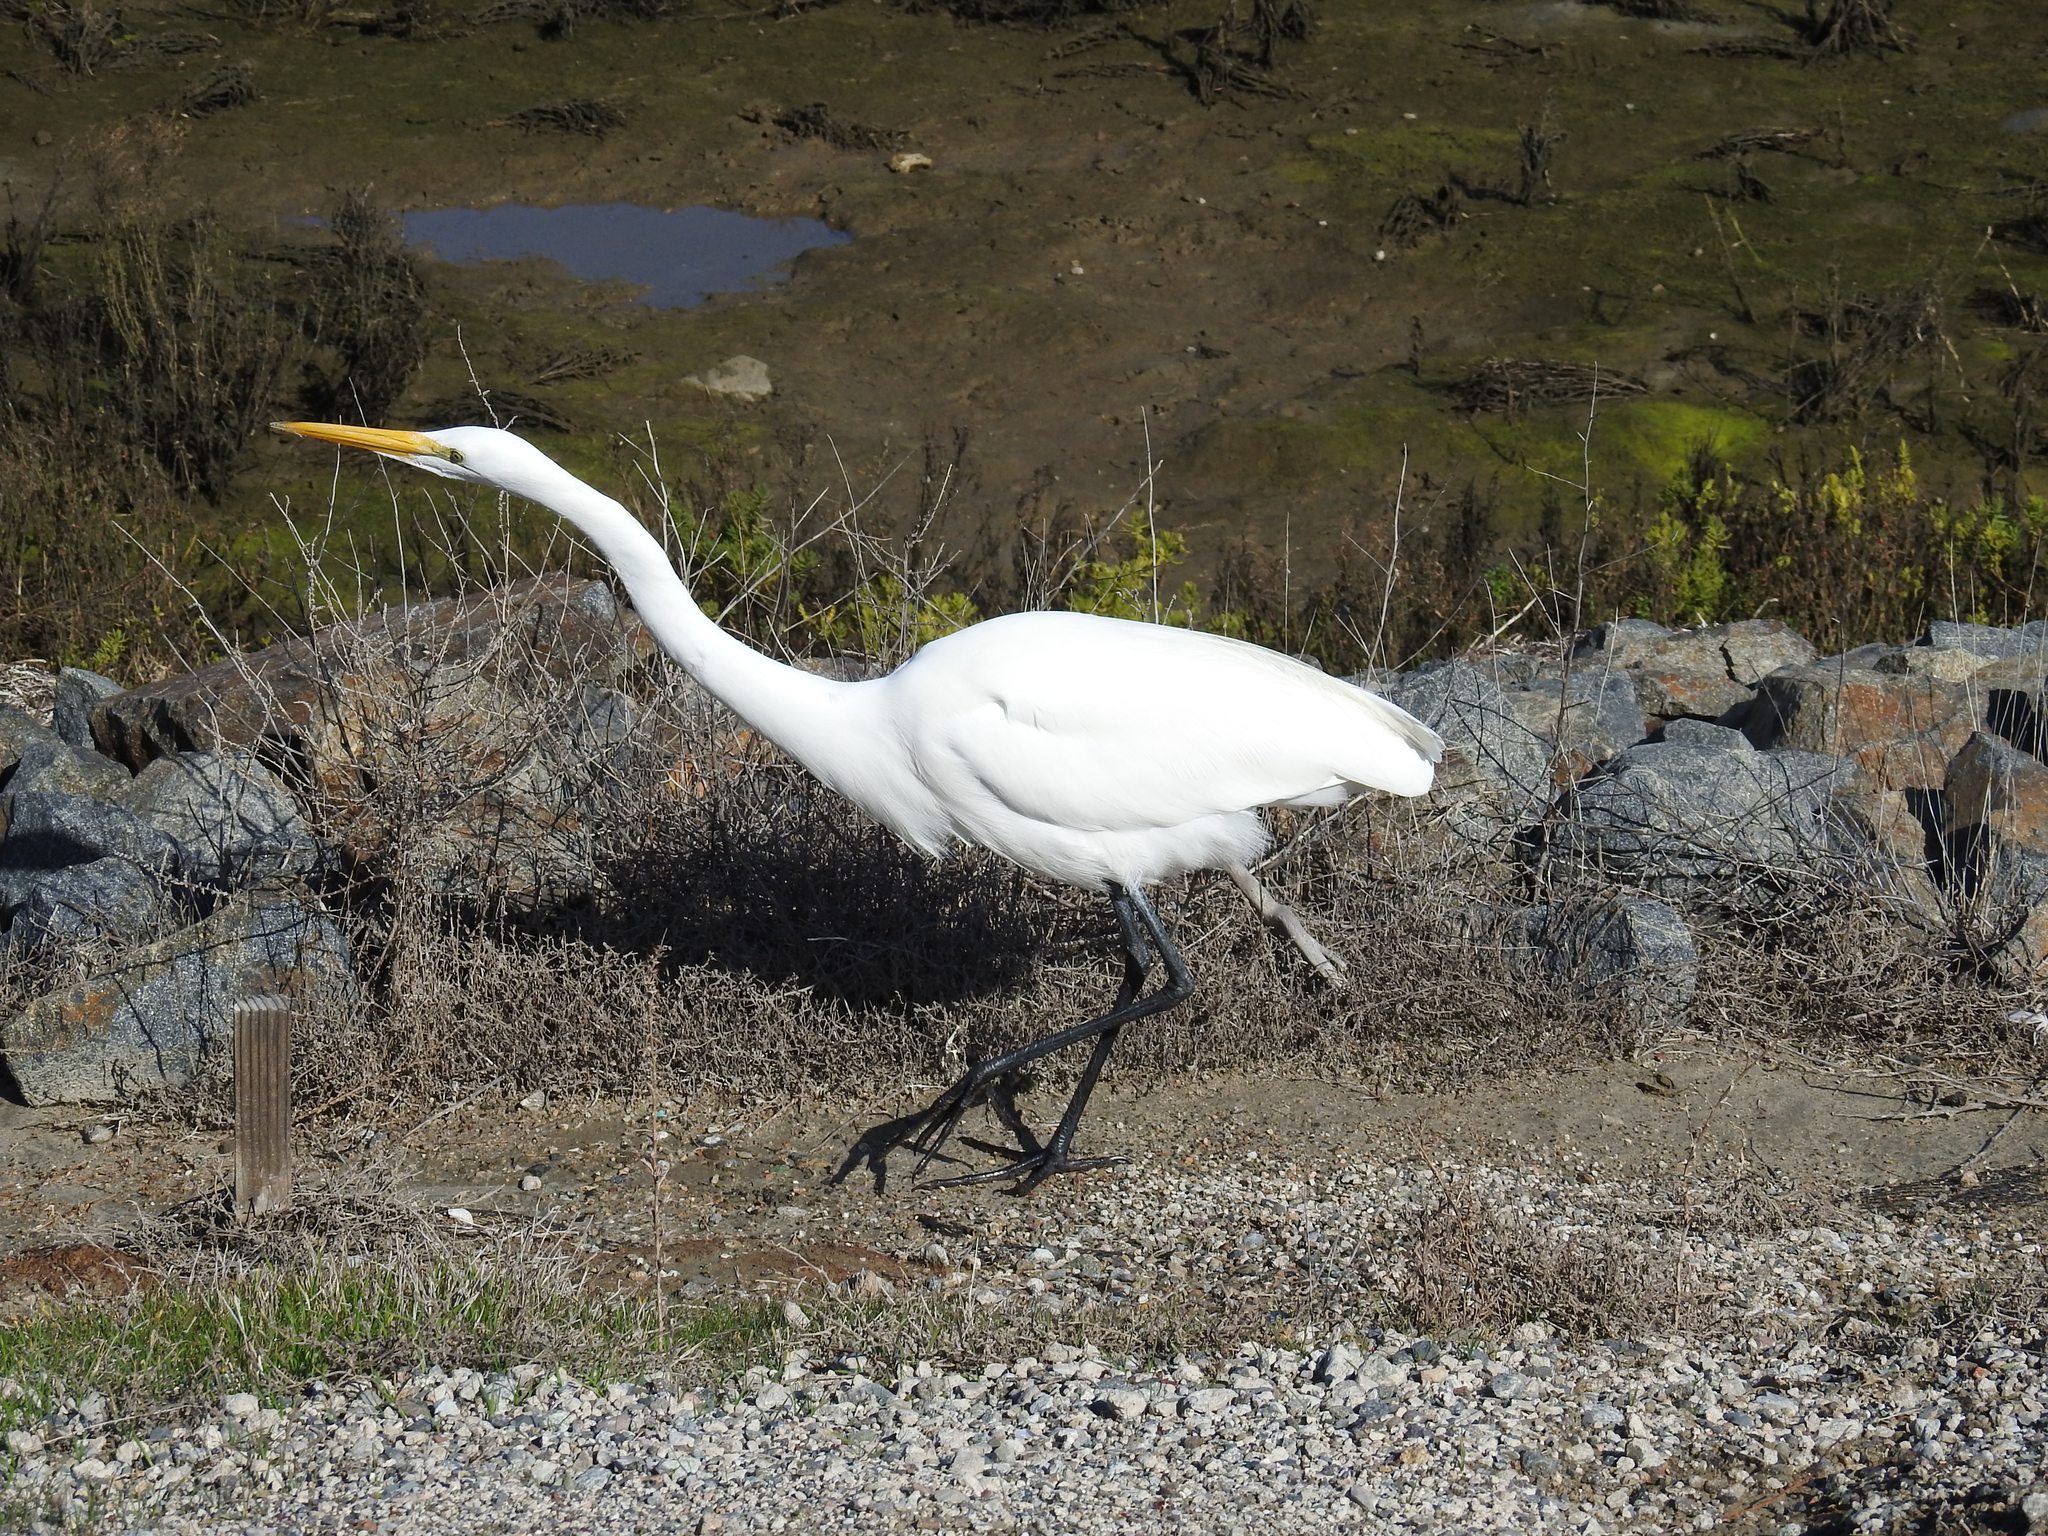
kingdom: Animalia
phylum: Chordata
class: Aves
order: Pelecaniformes
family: Ardeidae
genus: Ardea
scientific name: Ardea alba
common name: Great egret
